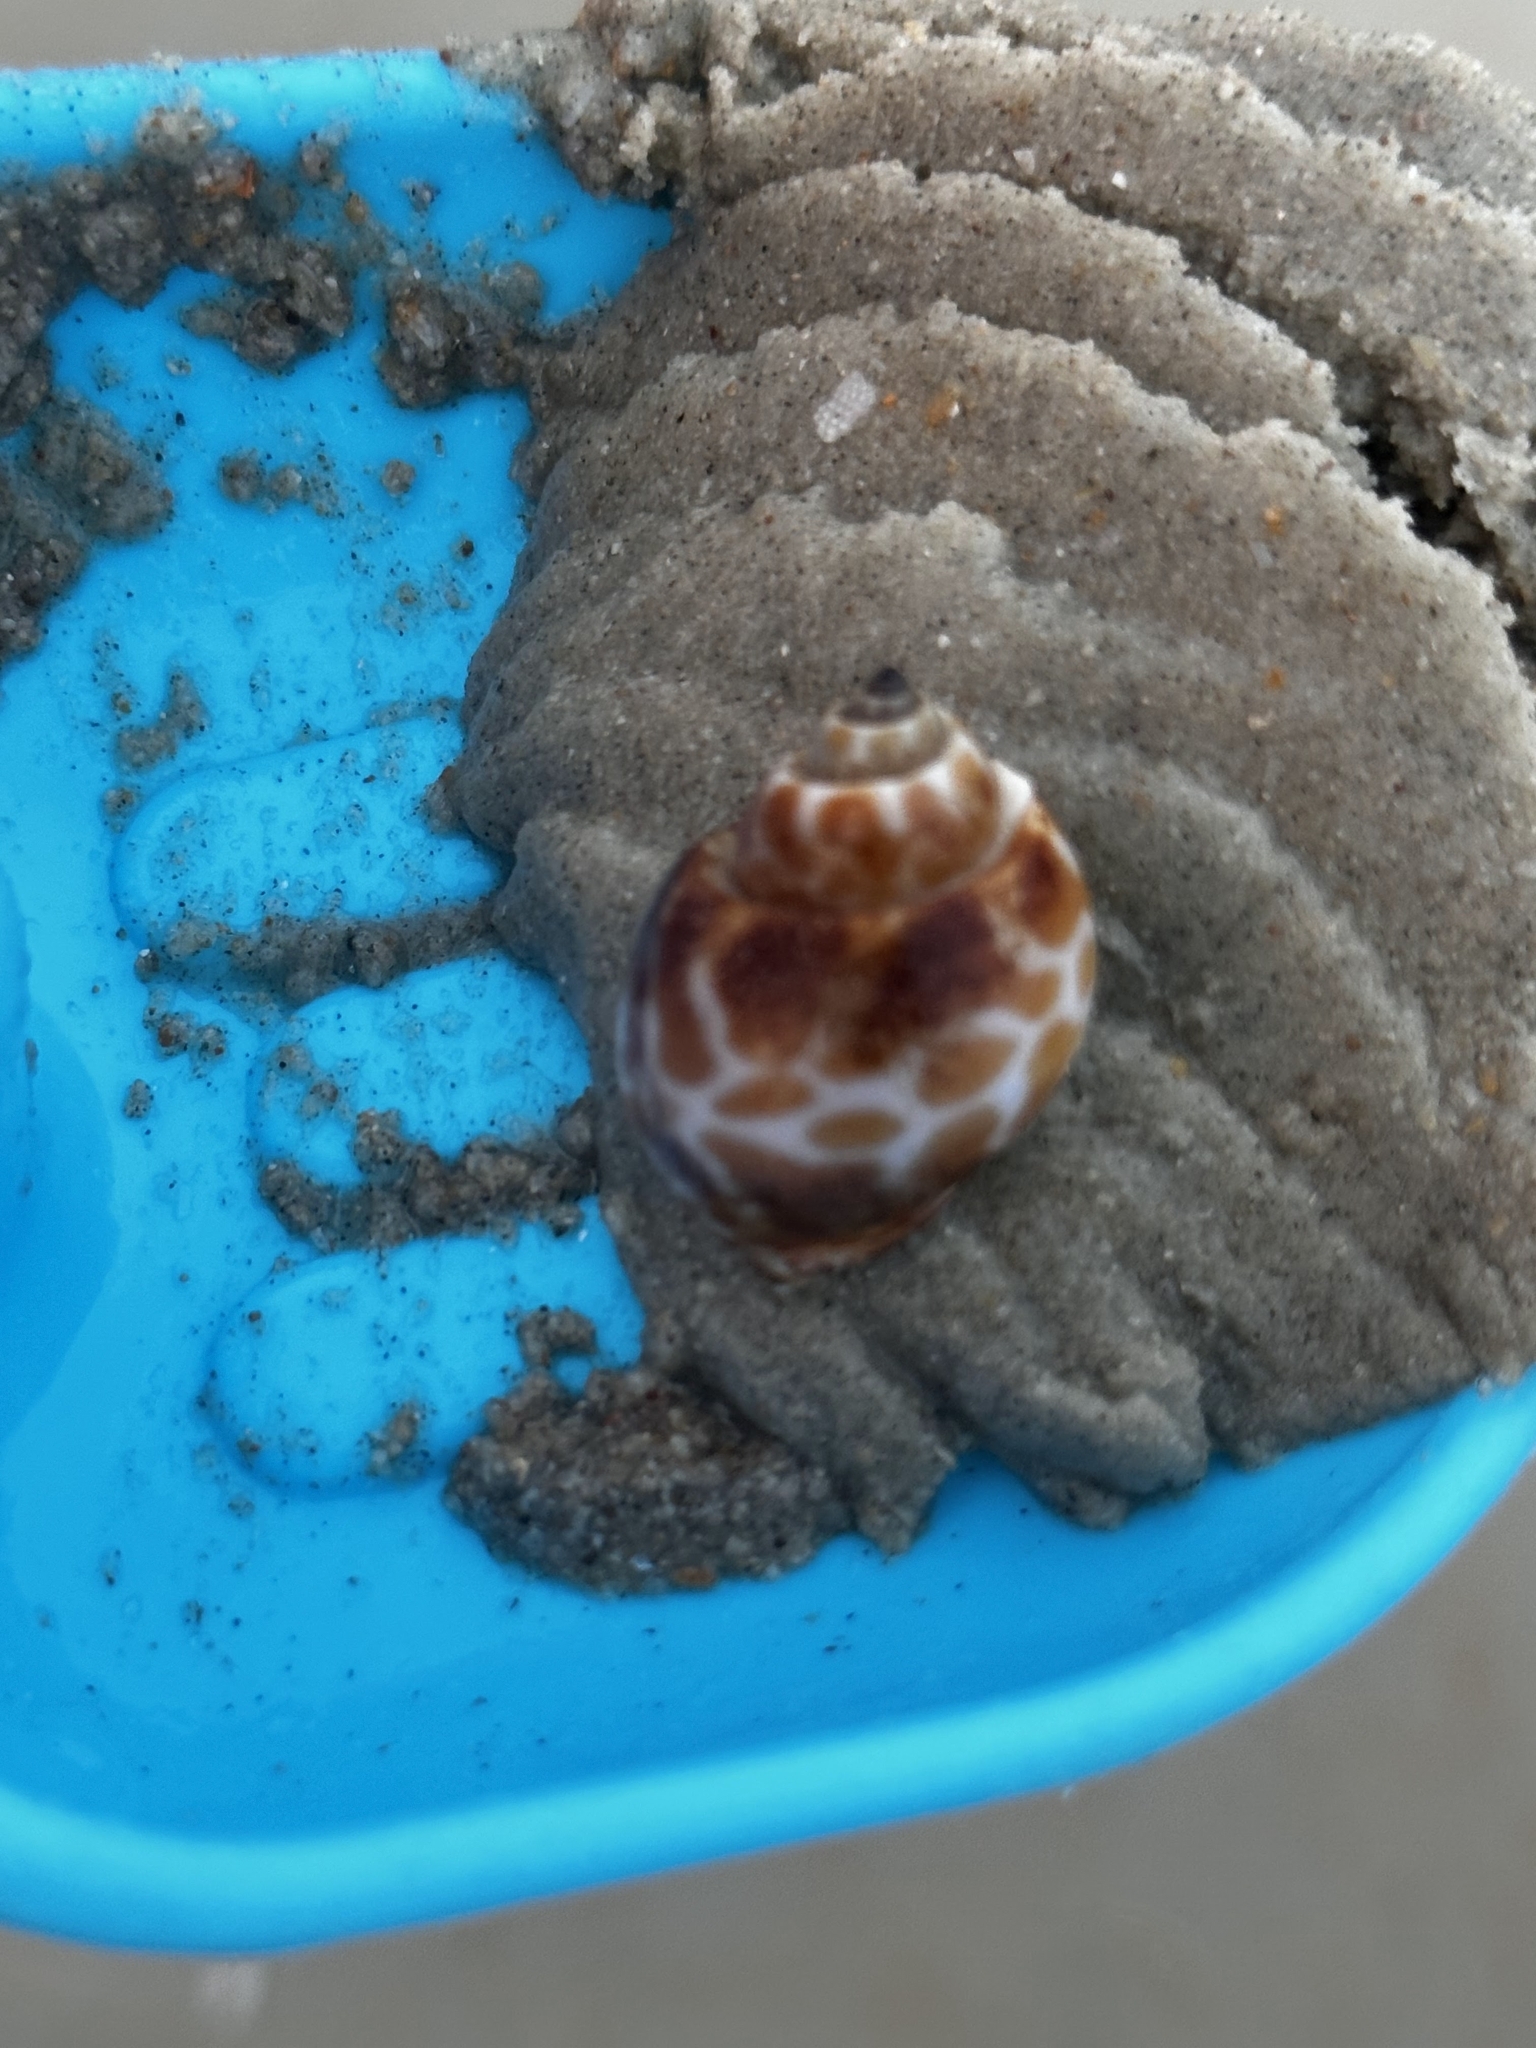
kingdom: Animalia
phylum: Mollusca
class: Gastropoda
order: Neogastropoda
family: Babyloniidae
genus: Babylonia
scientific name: Babylonia spirata
